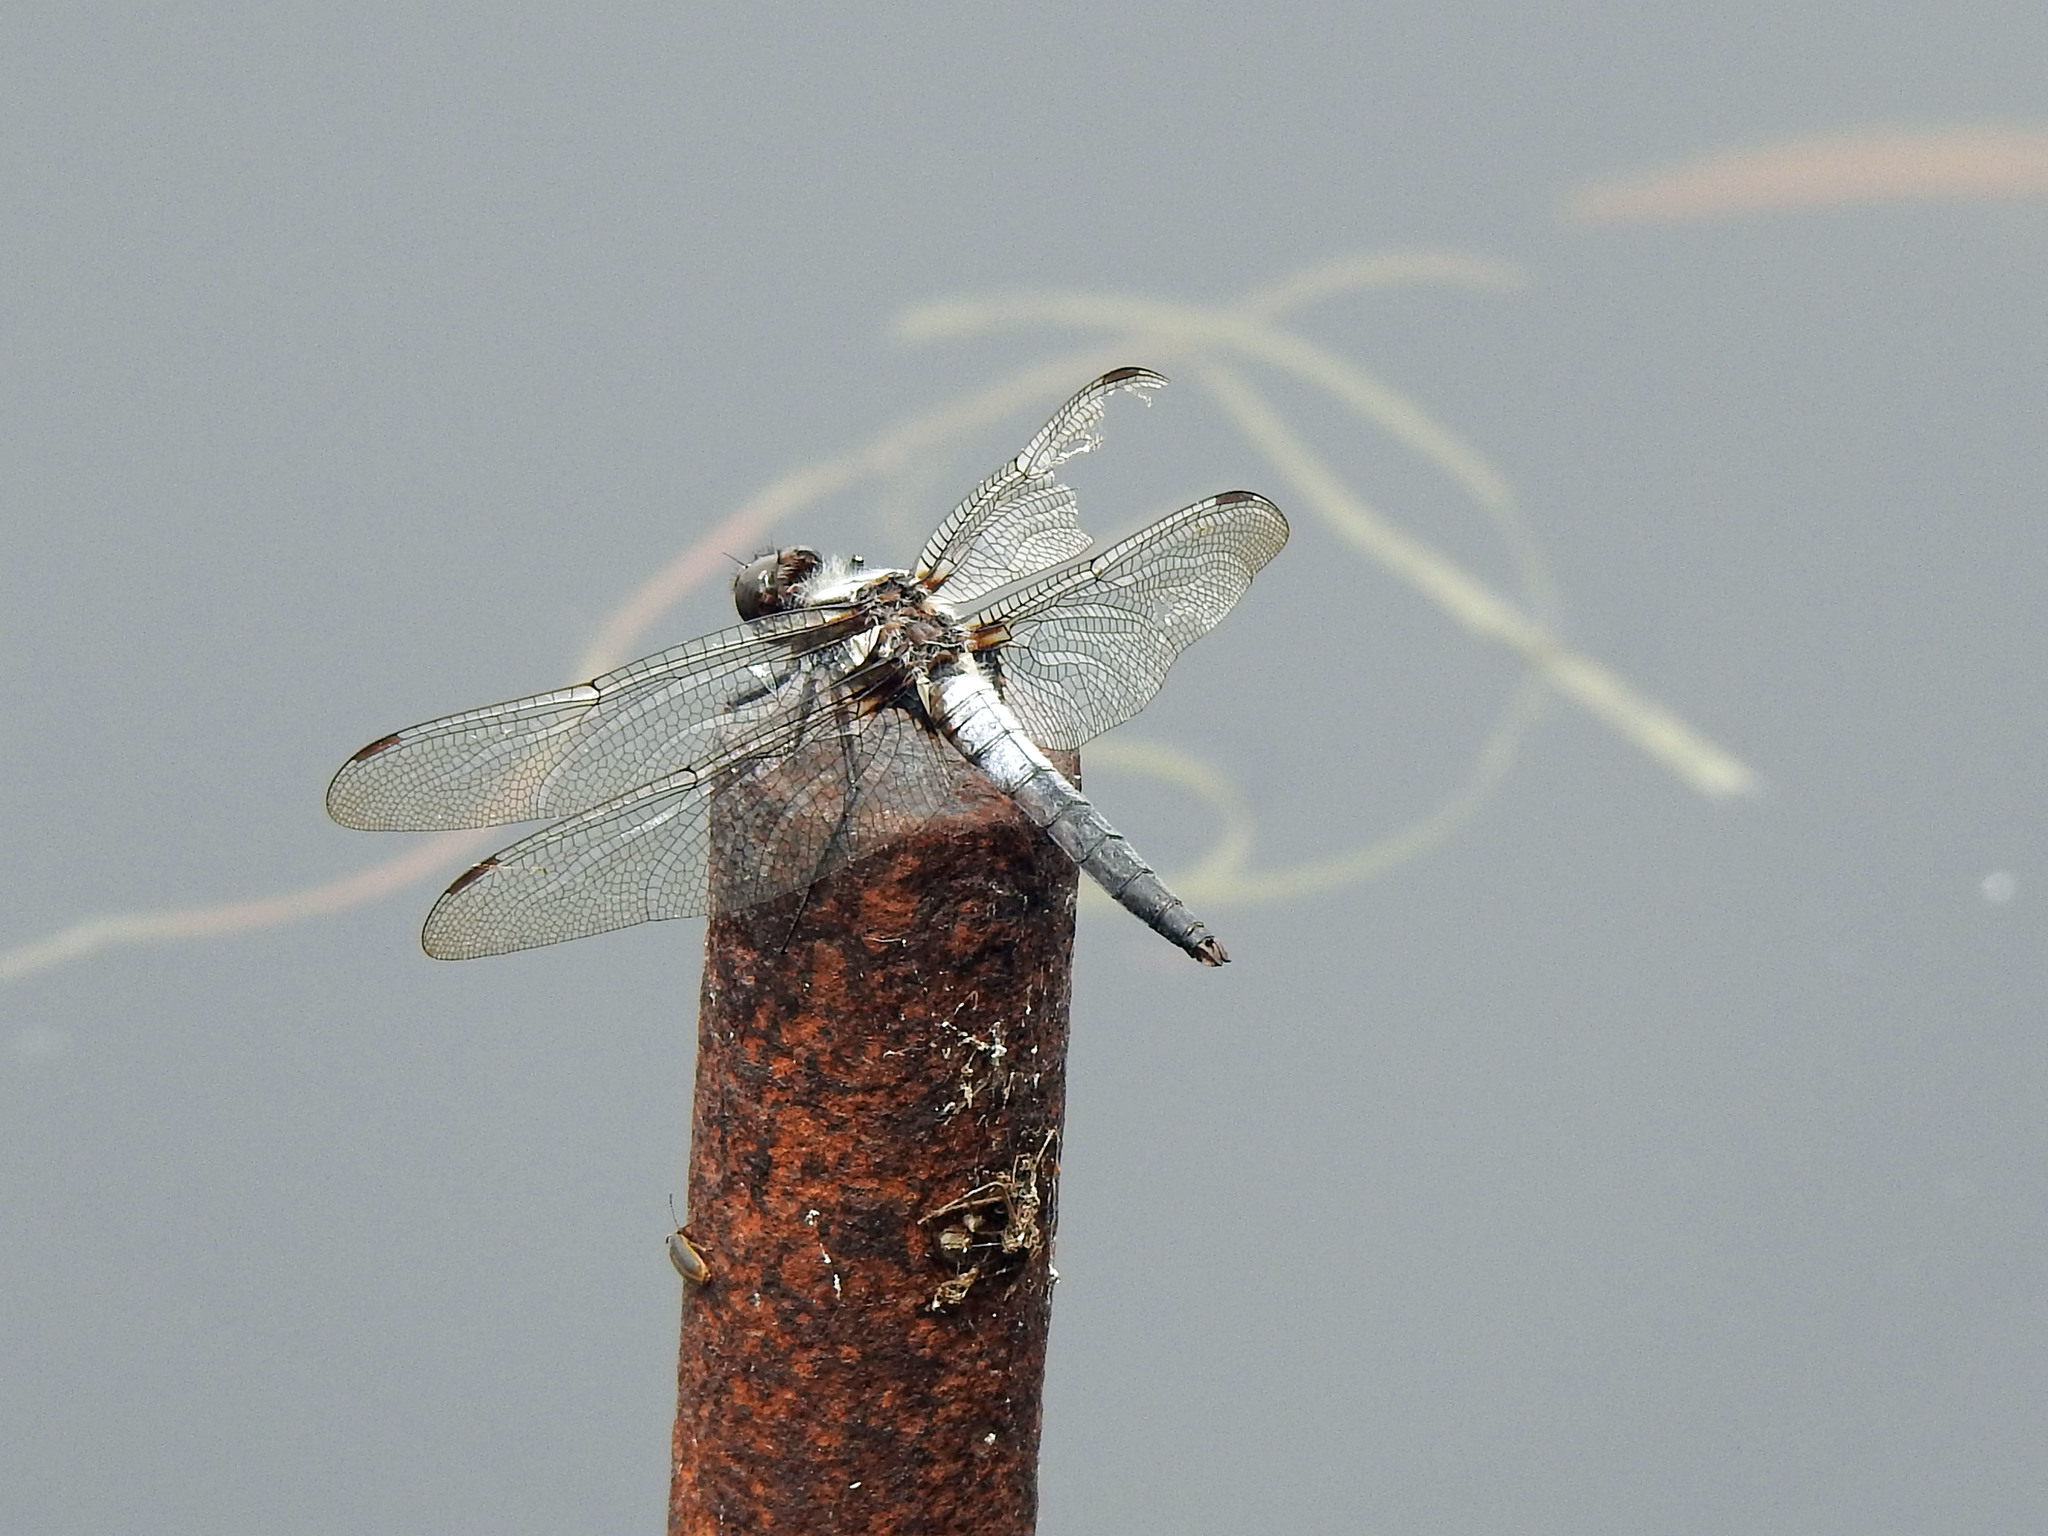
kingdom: Animalia
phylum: Arthropoda
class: Insecta
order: Odonata
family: Libellulidae
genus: Ladona
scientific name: Ladona julia
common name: Chalk-fronted corporal
